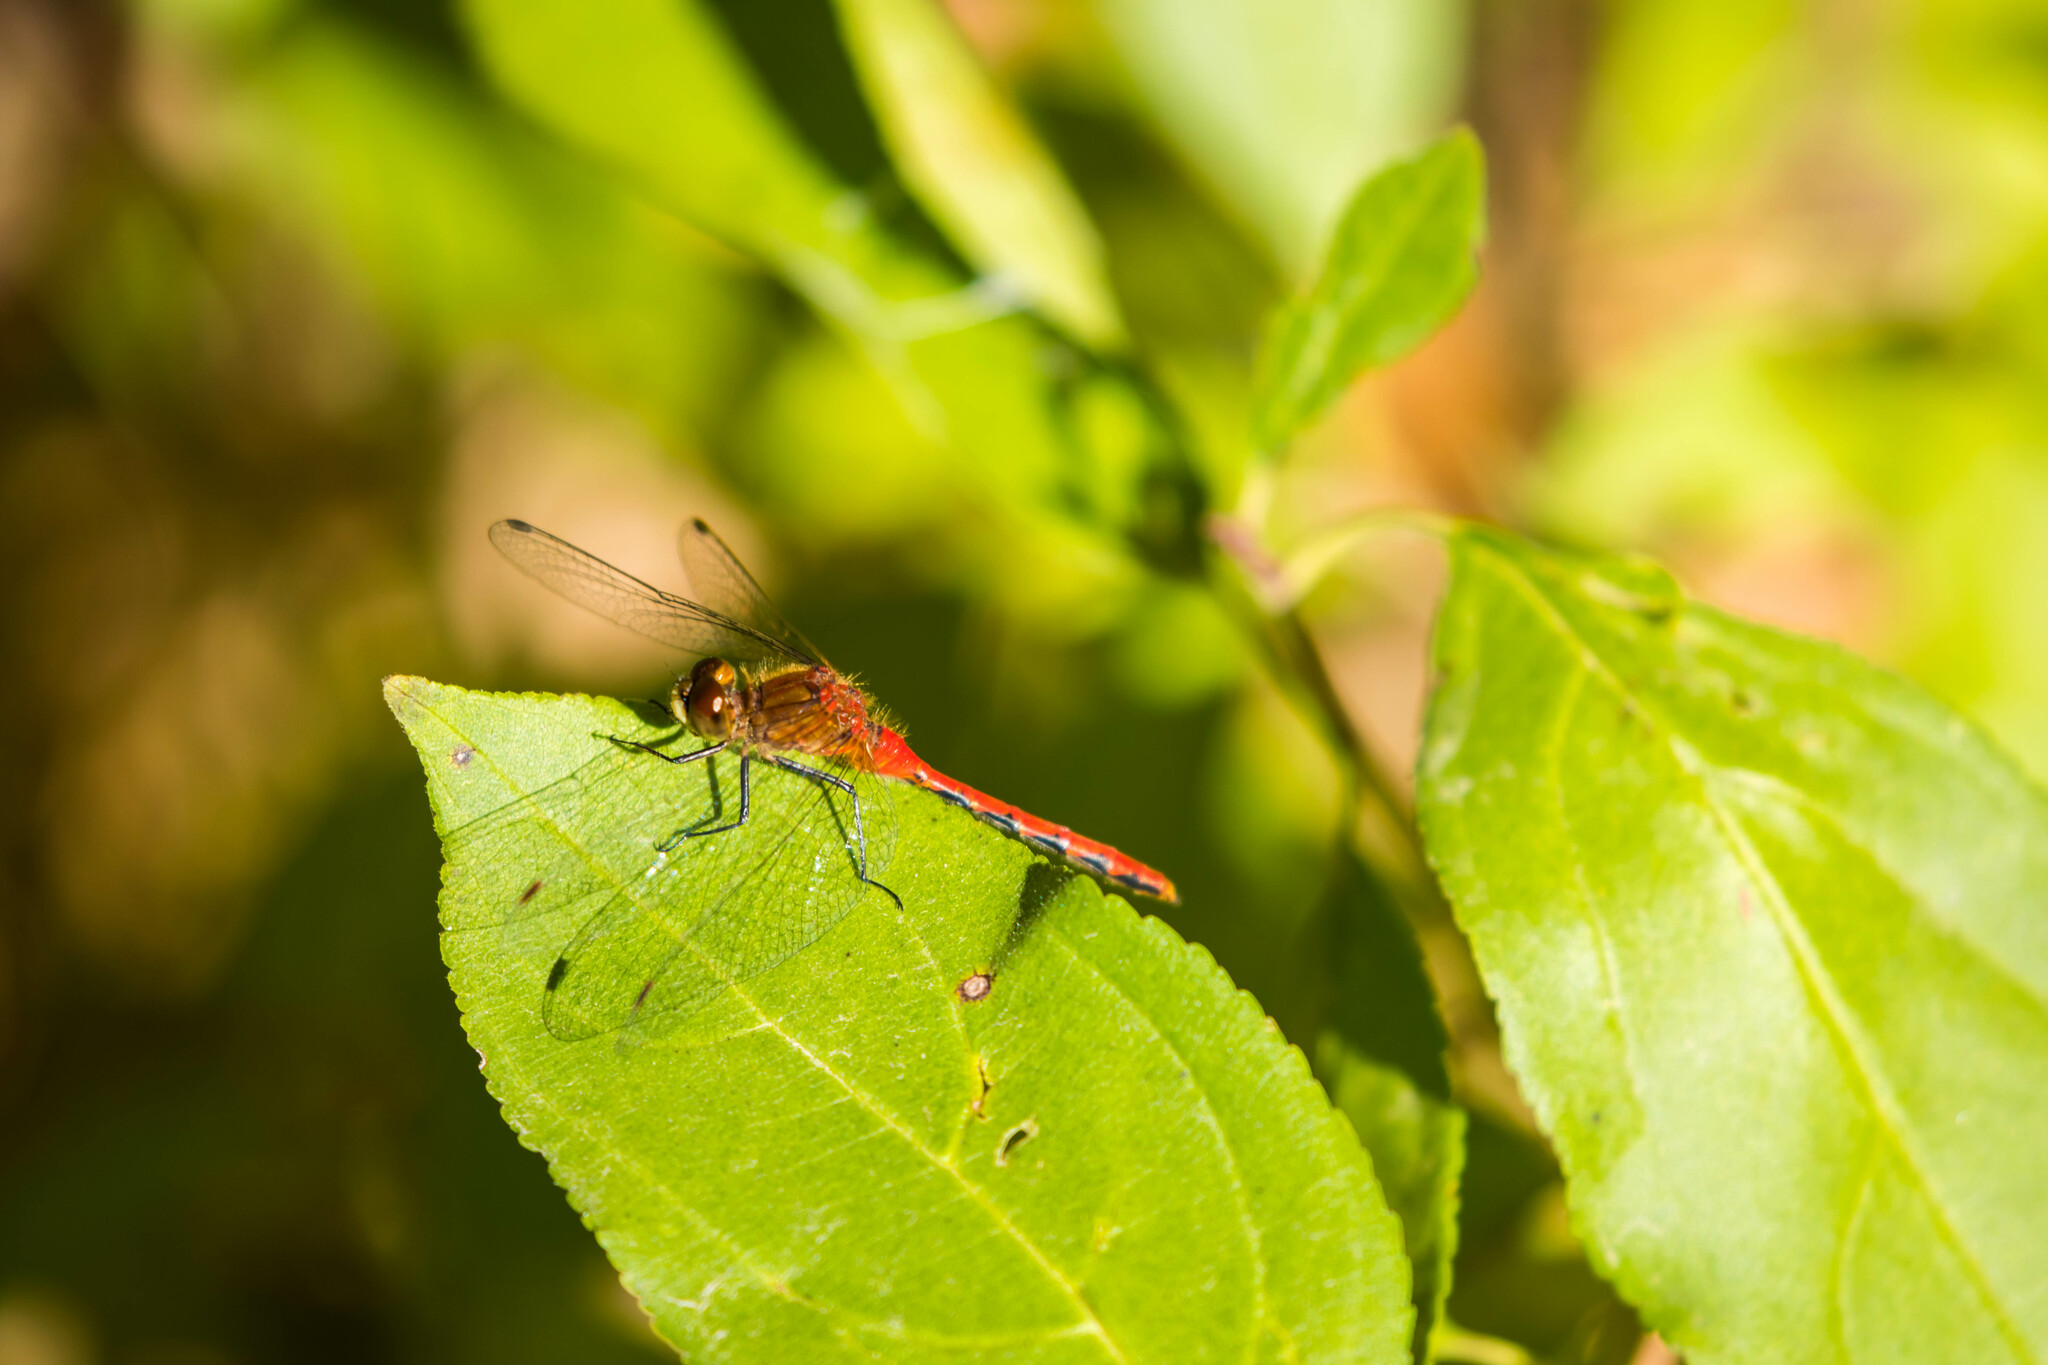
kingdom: Animalia
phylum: Arthropoda
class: Insecta
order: Odonata
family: Libellulidae
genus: Sympetrum
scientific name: Sympetrum obtrusum
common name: White-faced meadowhawk
